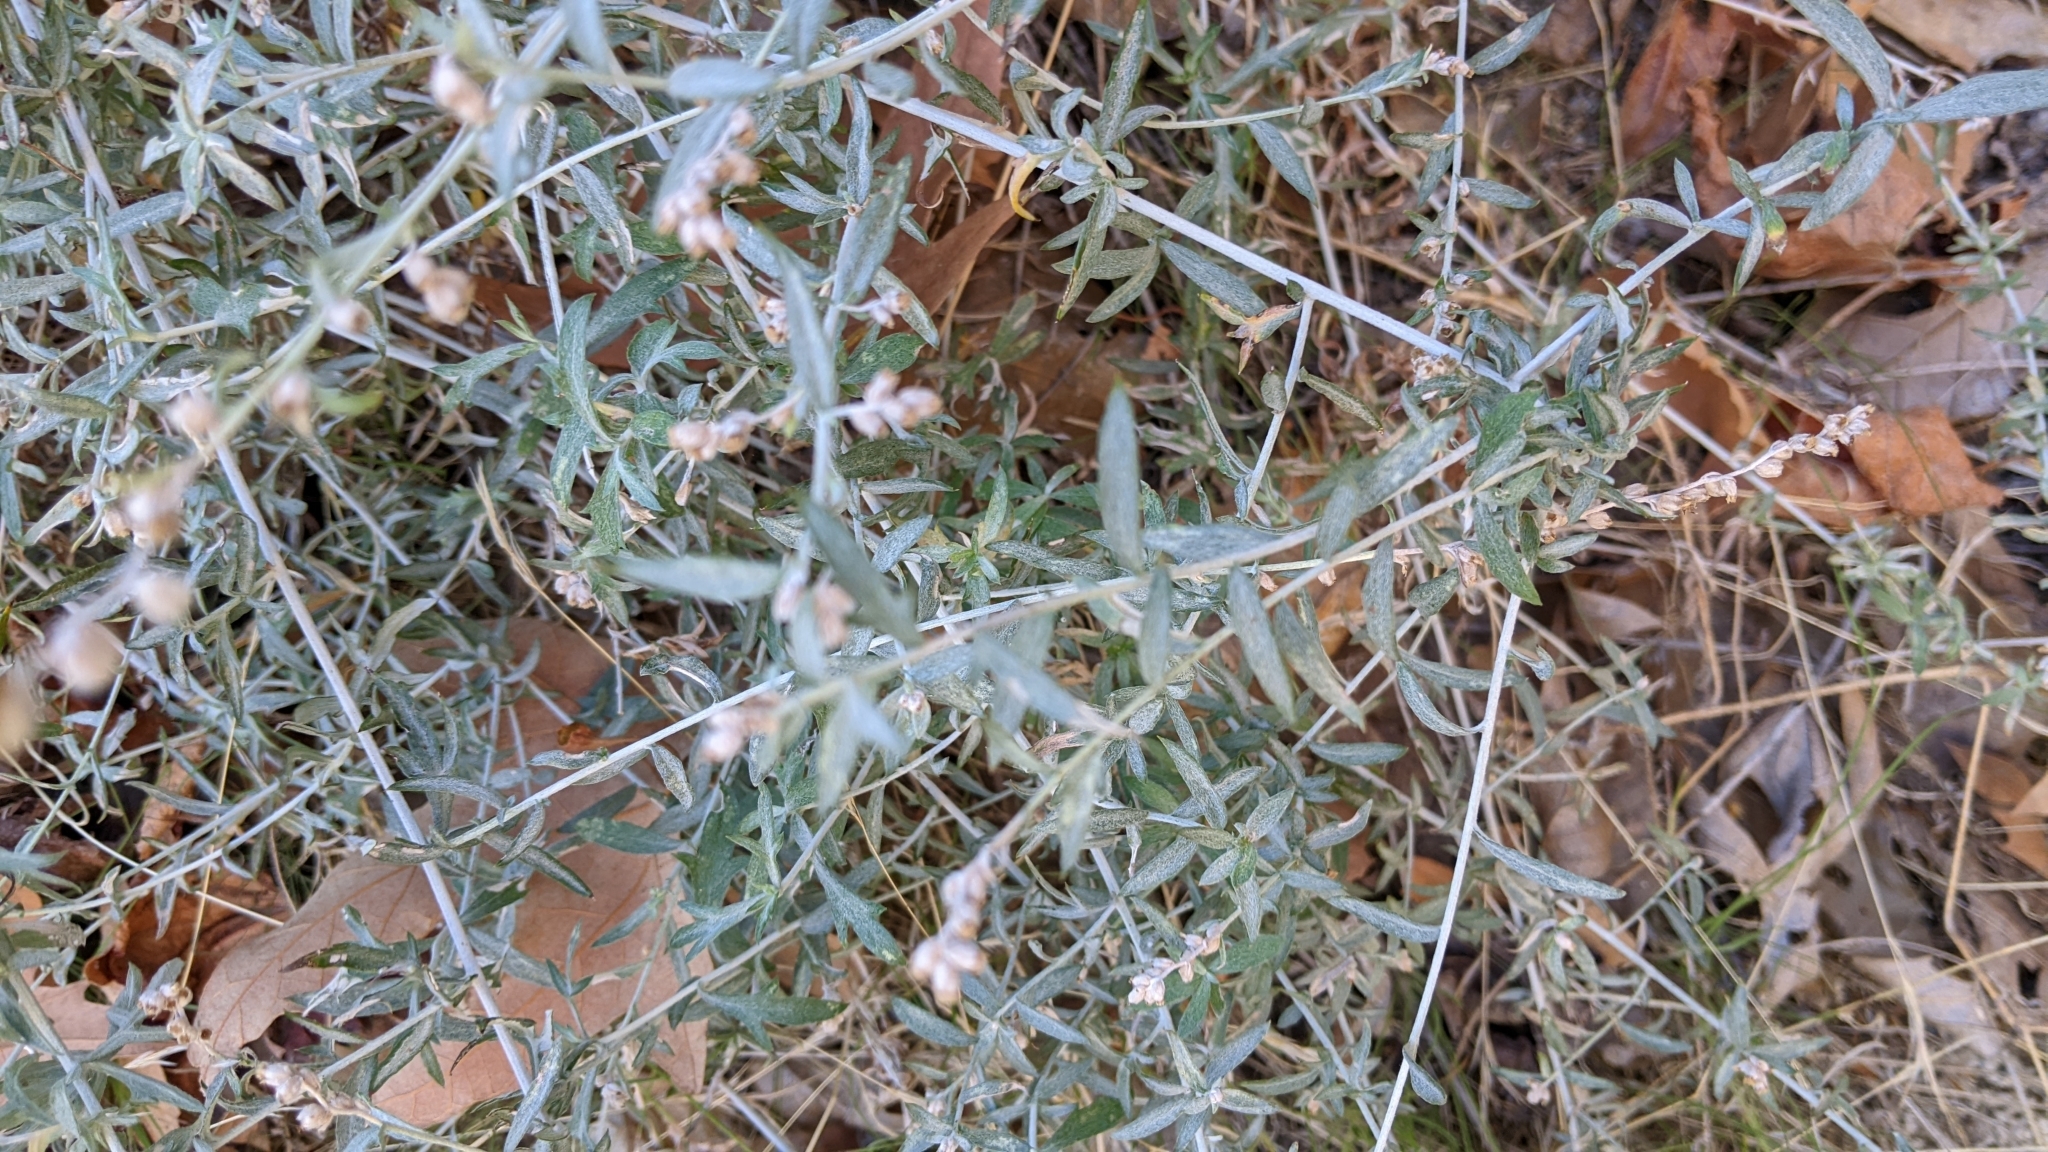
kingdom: Plantae
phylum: Tracheophyta
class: Magnoliopsida
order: Asterales
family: Asteraceae
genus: Artemisia
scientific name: Artemisia ludoviciana
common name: Western mugwort
